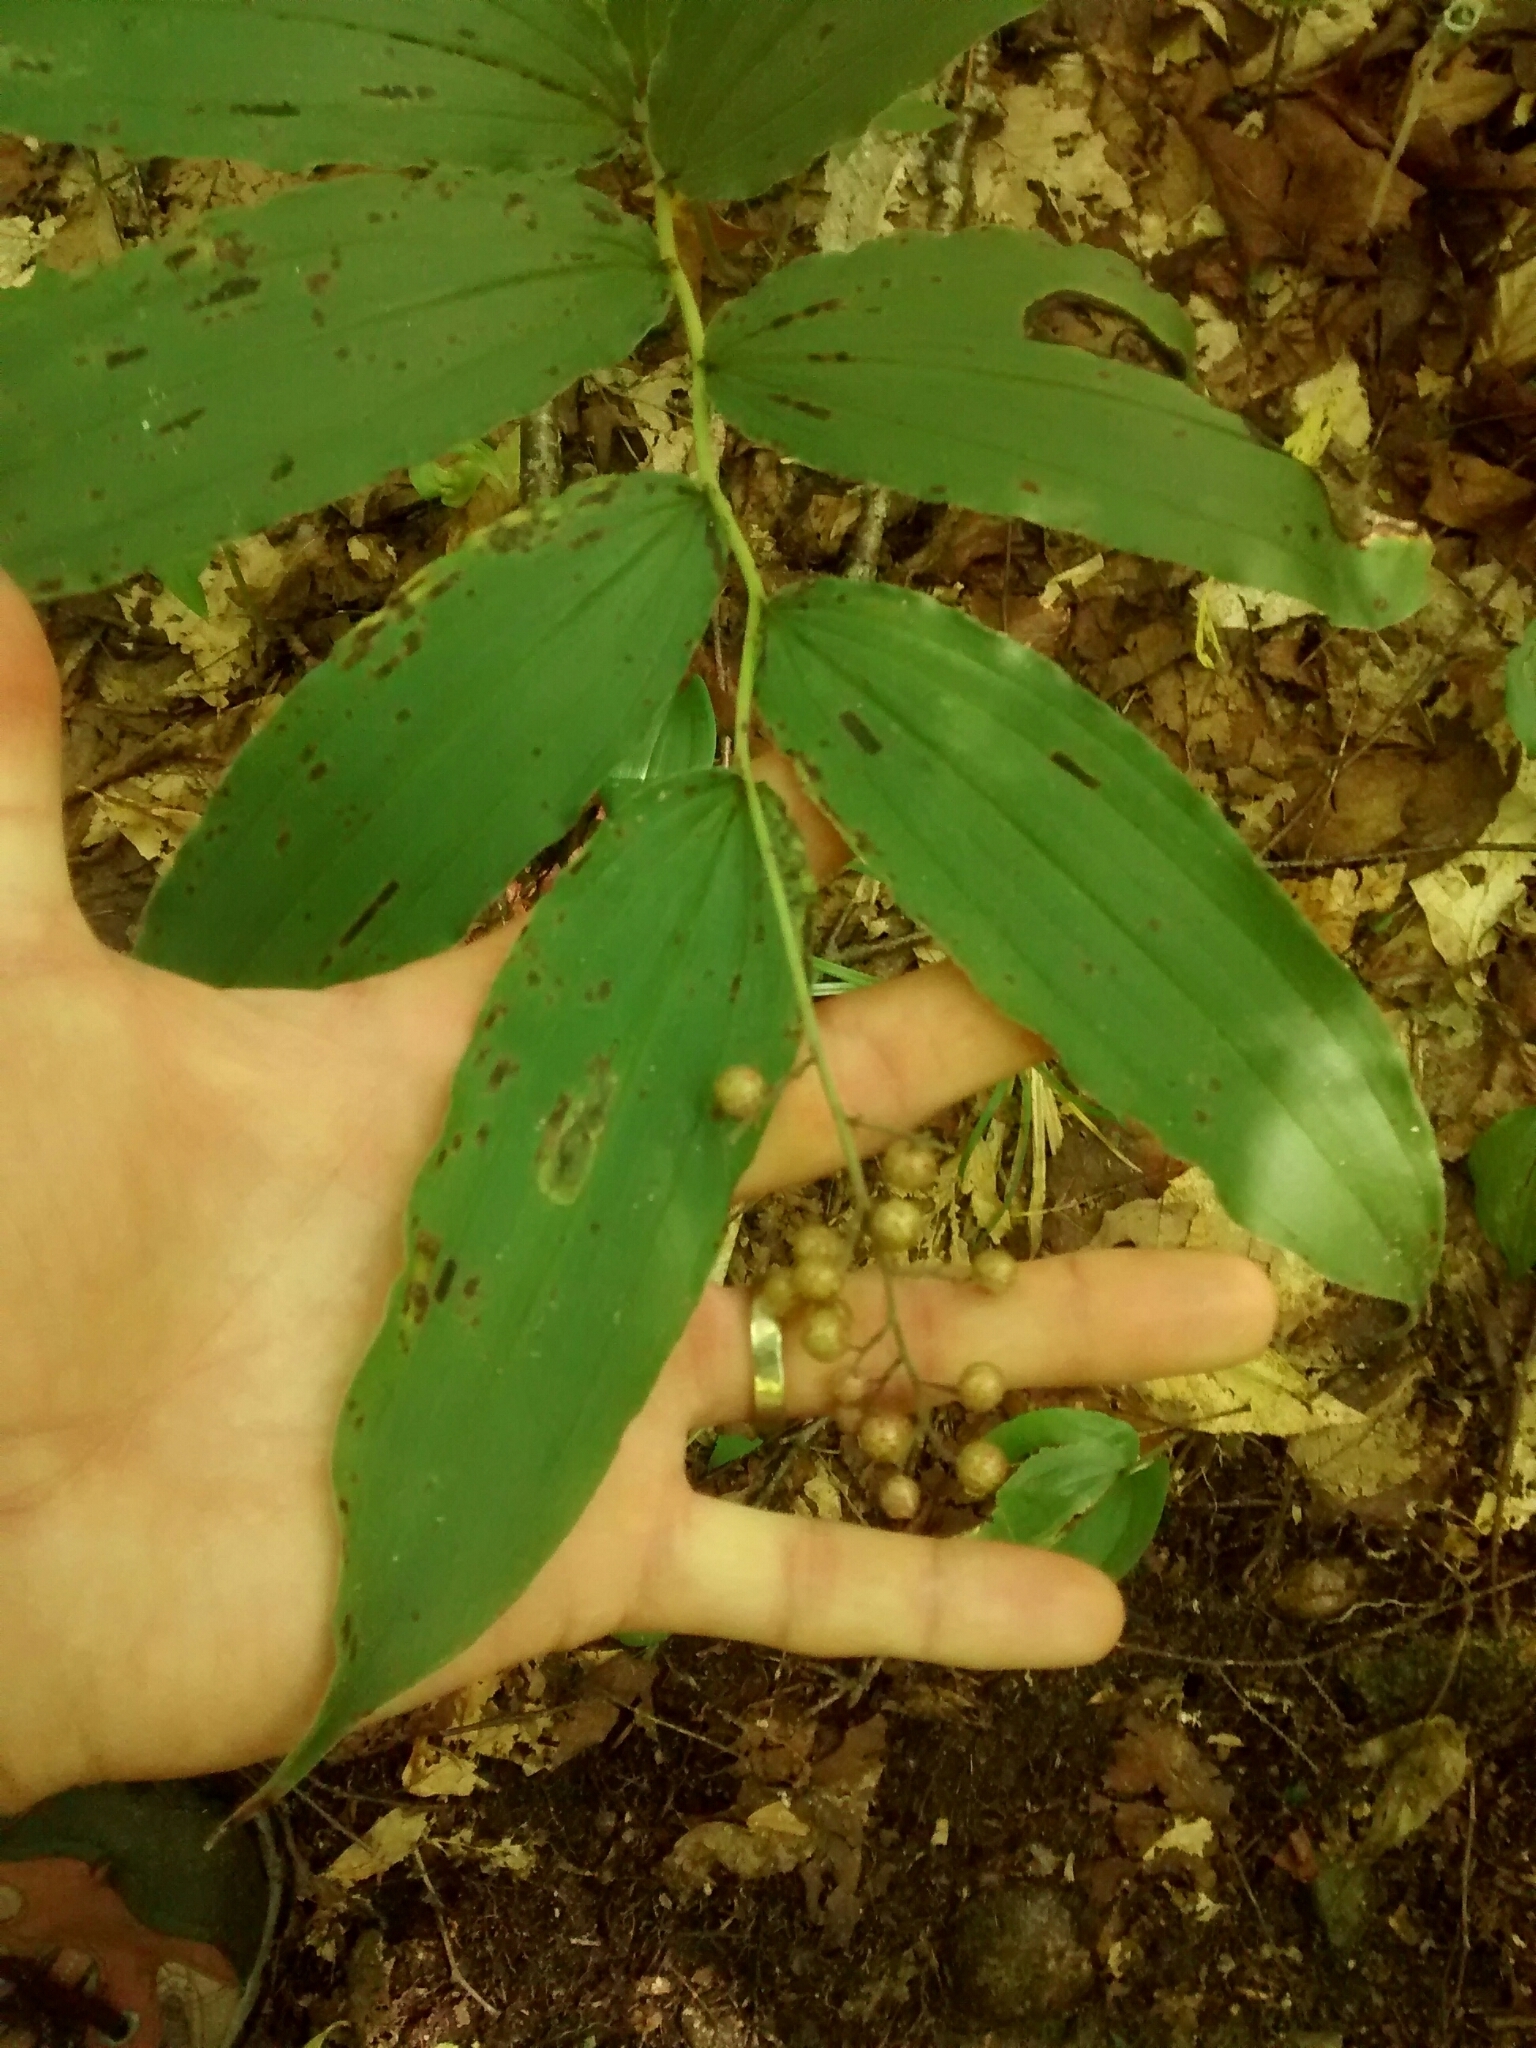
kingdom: Plantae
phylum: Tracheophyta
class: Liliopsida
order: Asparagales
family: Asparagaceae
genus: Maianthemum
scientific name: Maianthemum racemosum
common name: False spikenard
